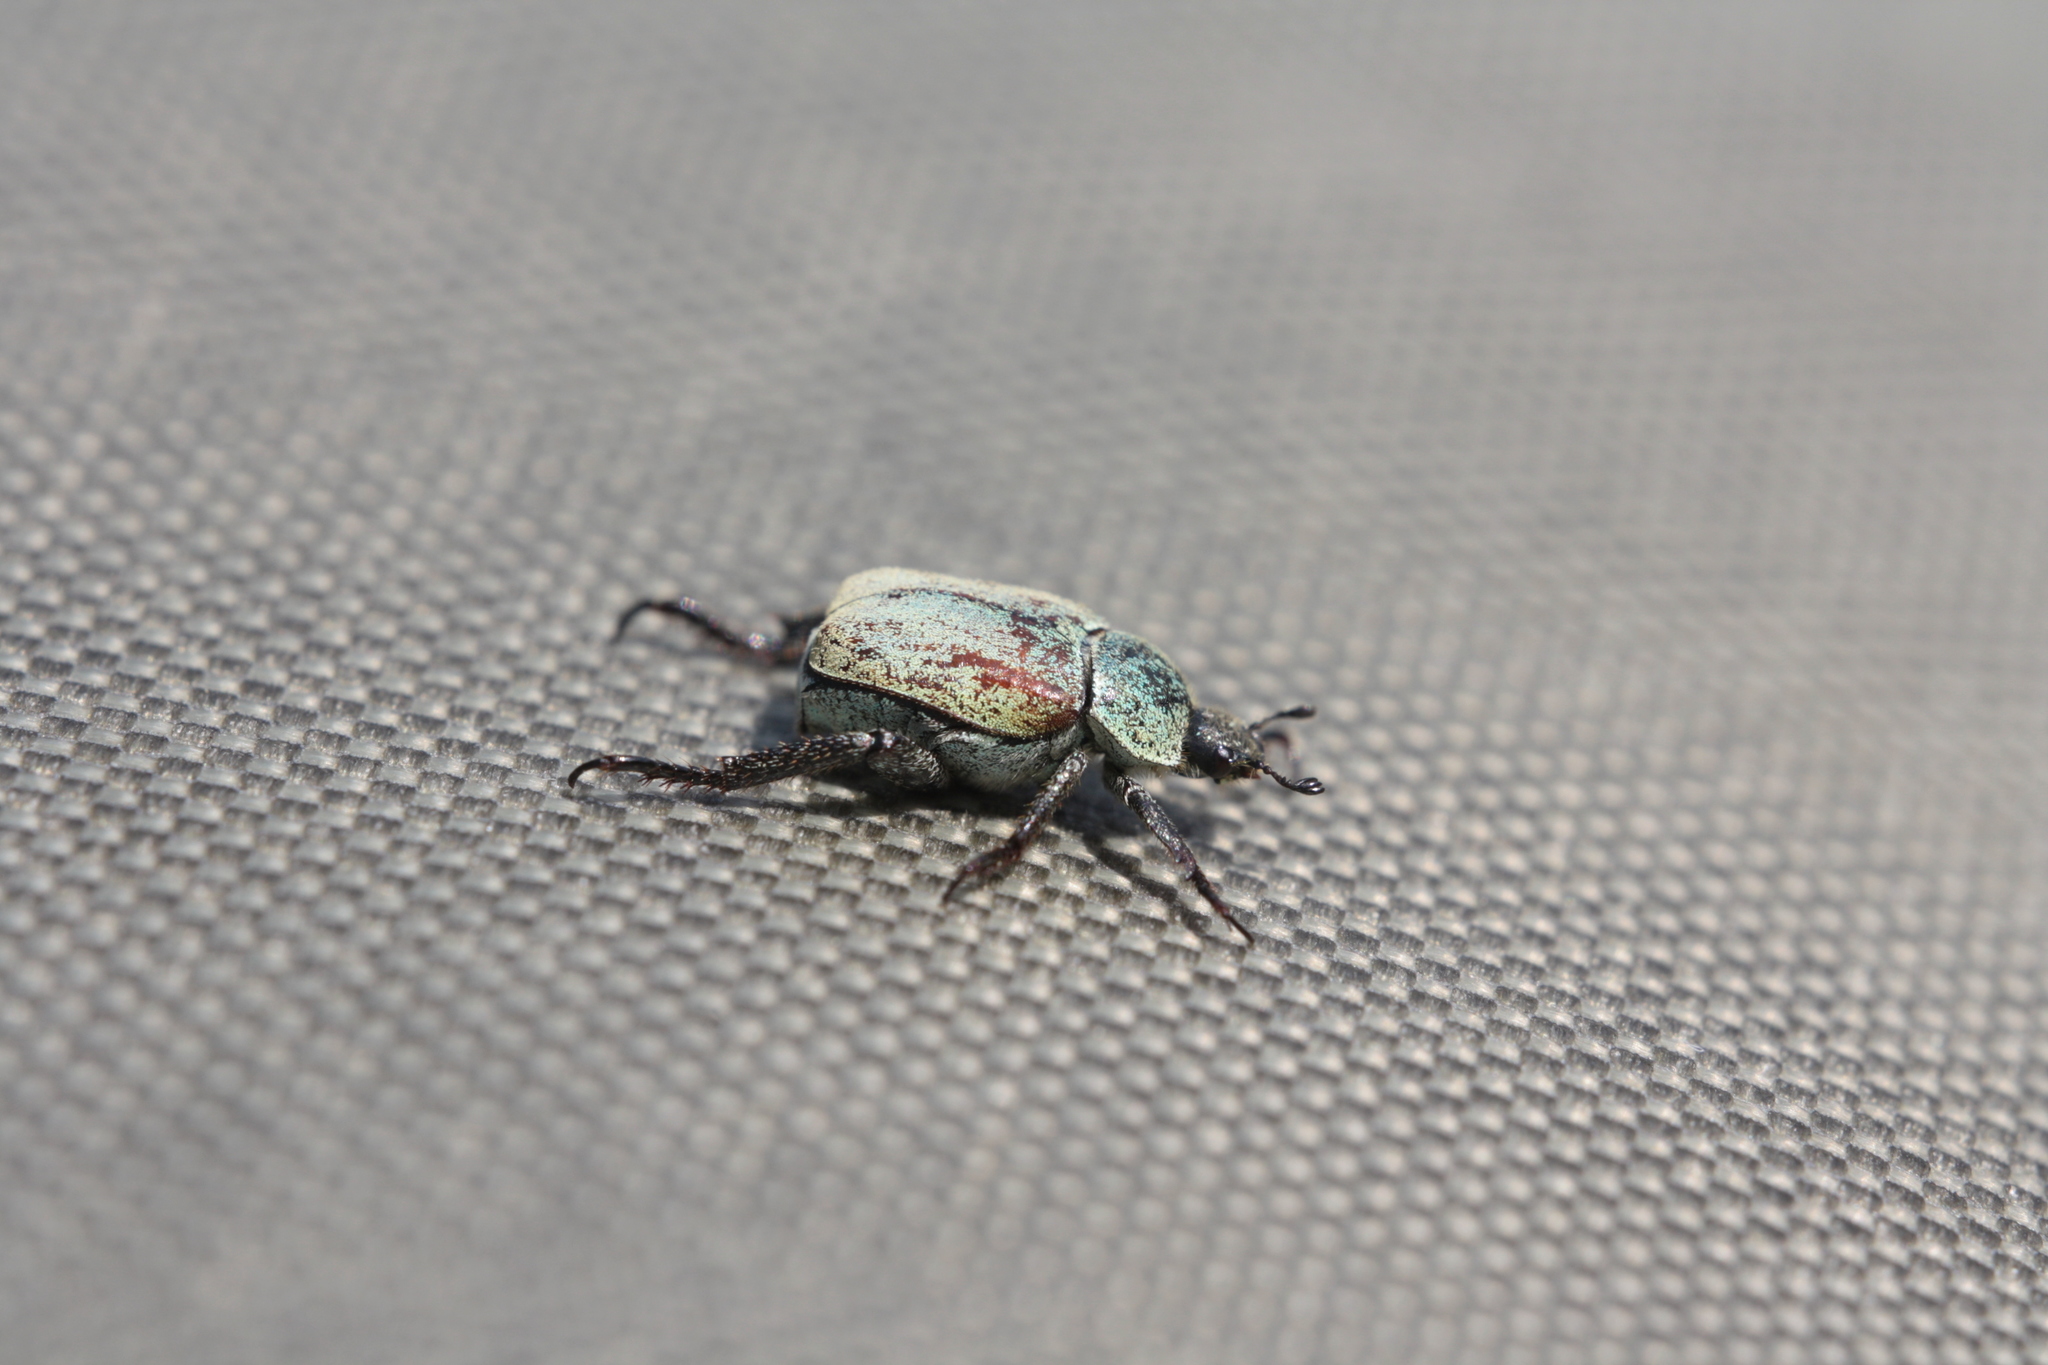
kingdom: Animalia
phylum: Arthropoda
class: Insecta
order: Coleoptera
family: Scarabaeidae
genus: Hoplia
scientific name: Hoplia argentea
